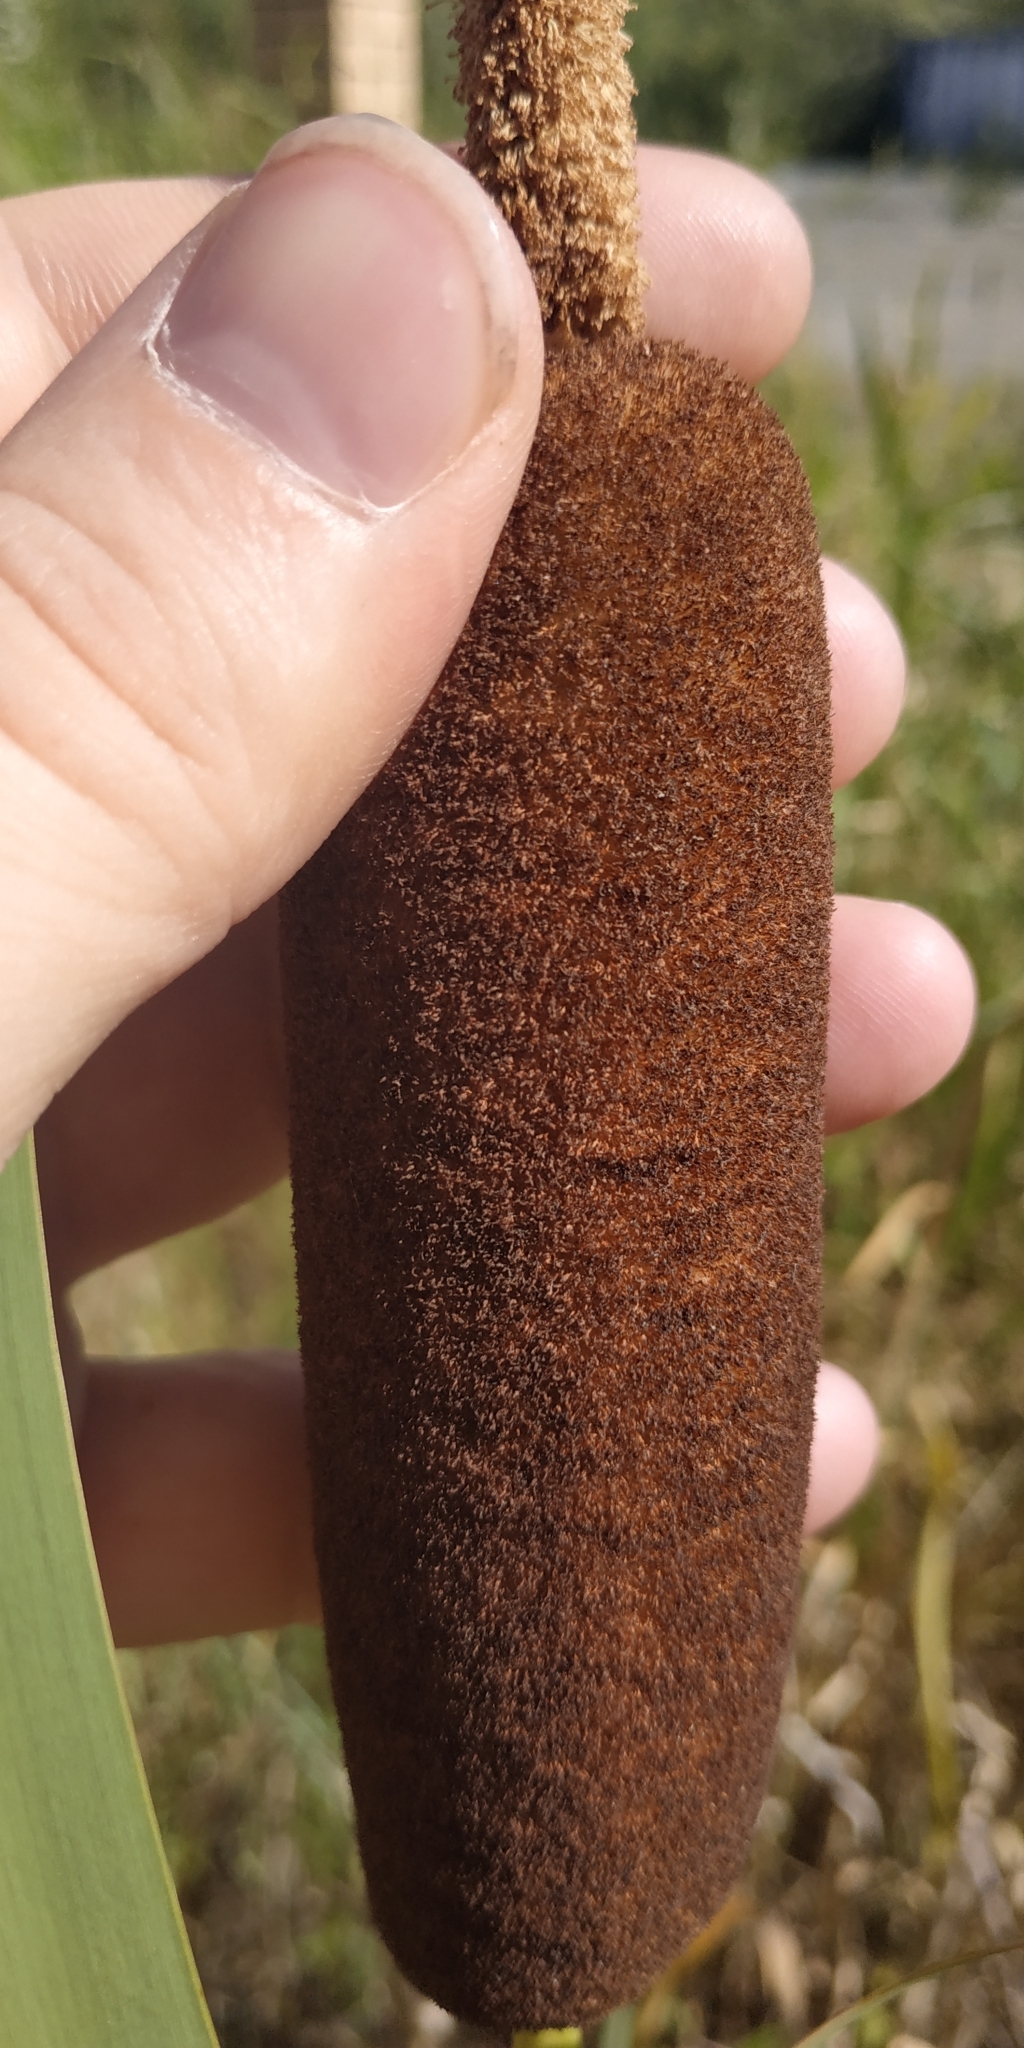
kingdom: Plantae
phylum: Tracheophyta
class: Liliopsida
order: Poales
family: Typhaceae
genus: Typha
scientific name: Typha latifolia
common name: Broadleaf cattail
